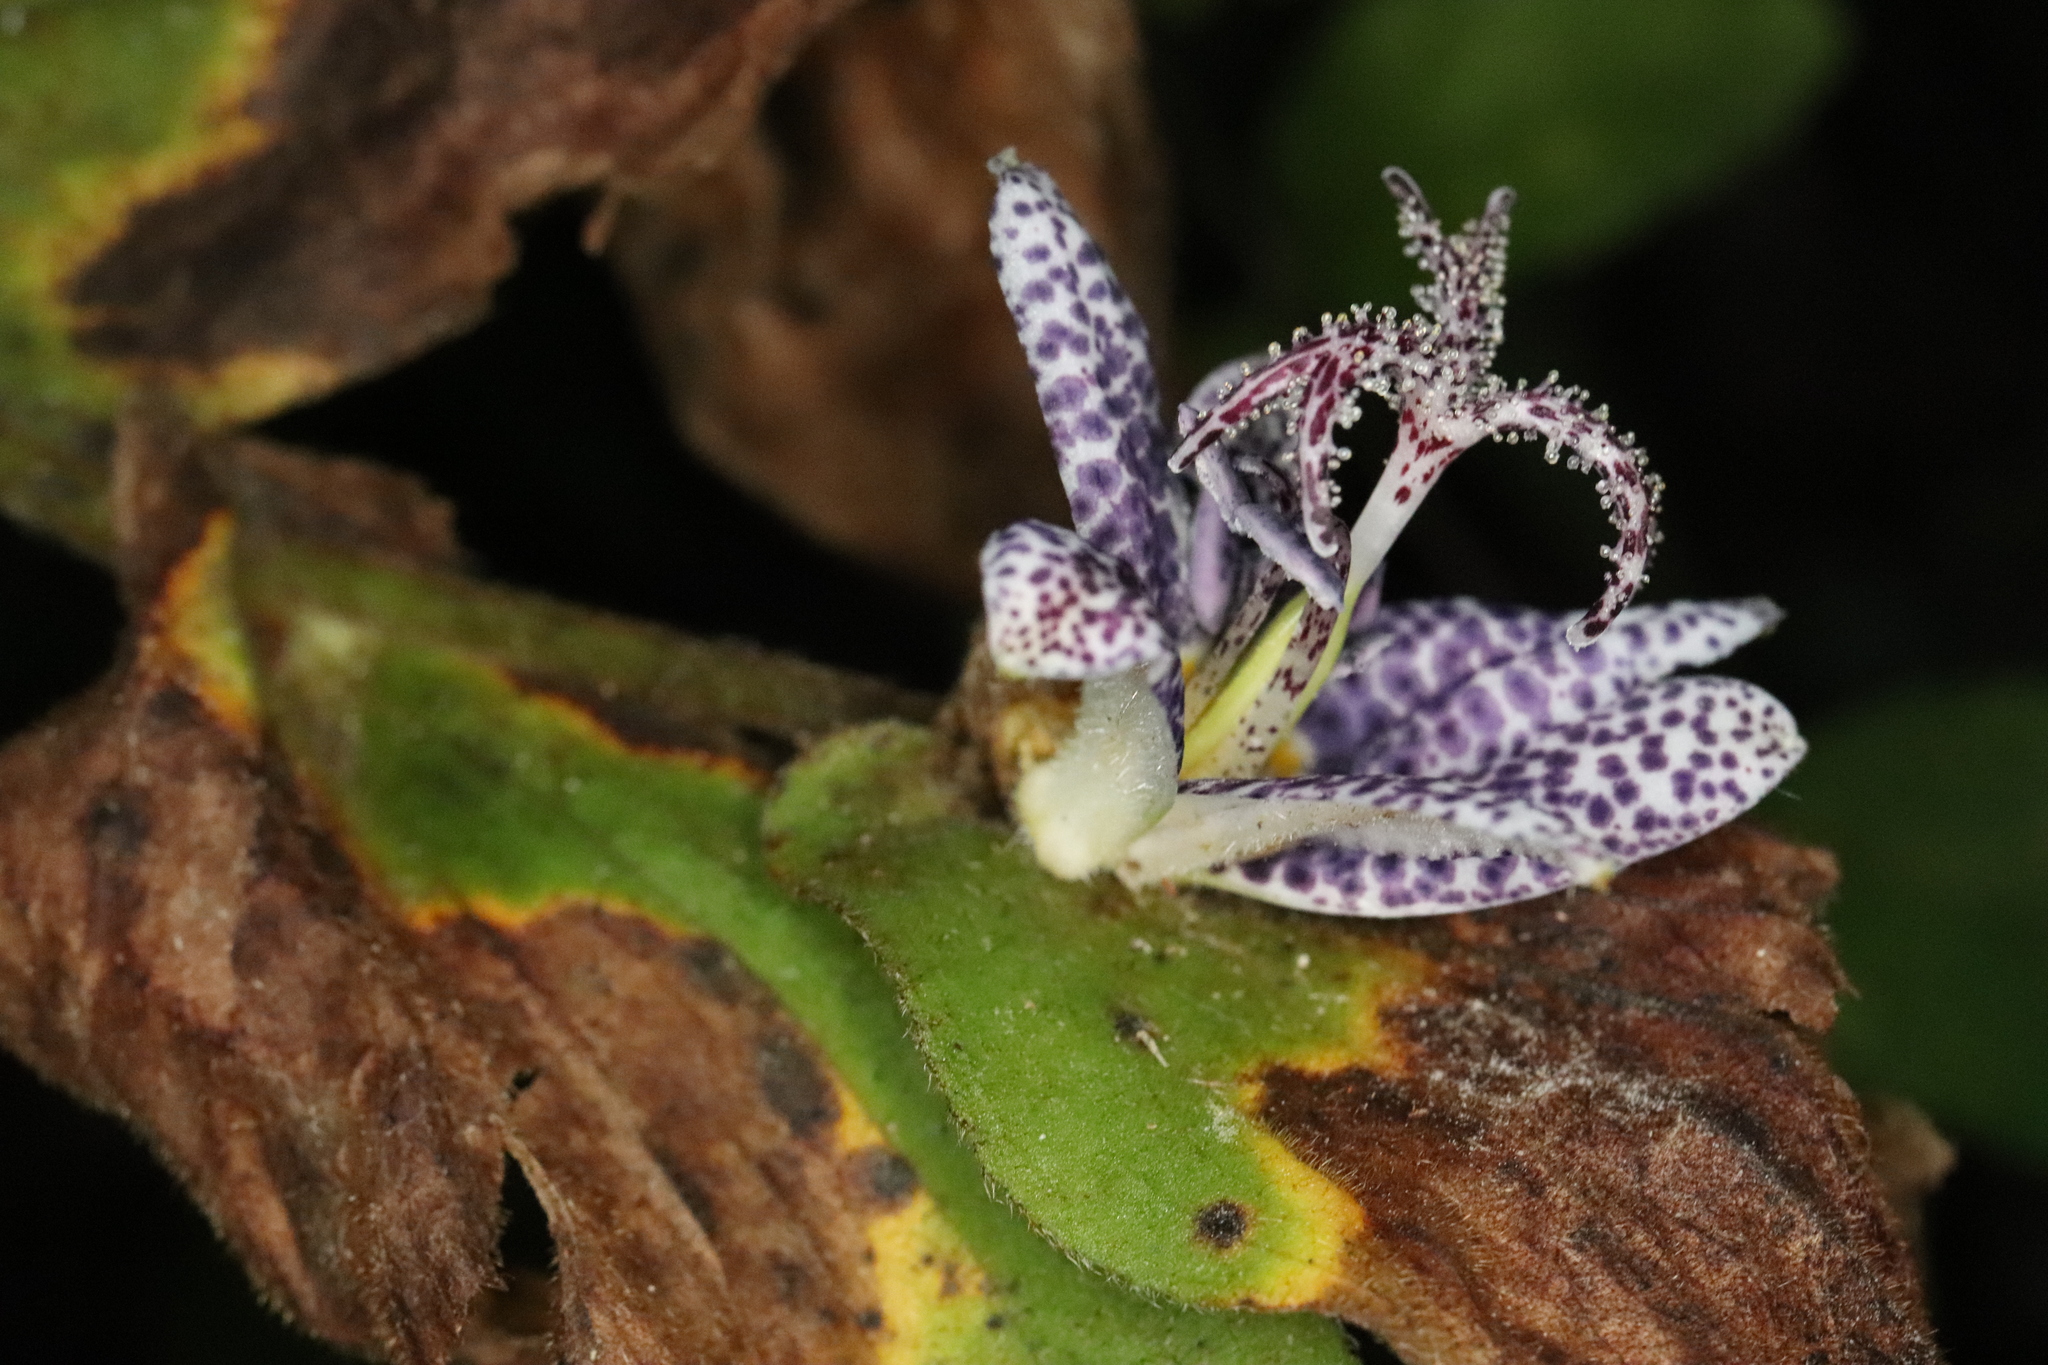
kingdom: Plantae
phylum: Tracheophyta
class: Liliopsida
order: Liliales
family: Liliaceae
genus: Tricyrtis
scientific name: Tricyrtis hirta
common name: Toadlily
